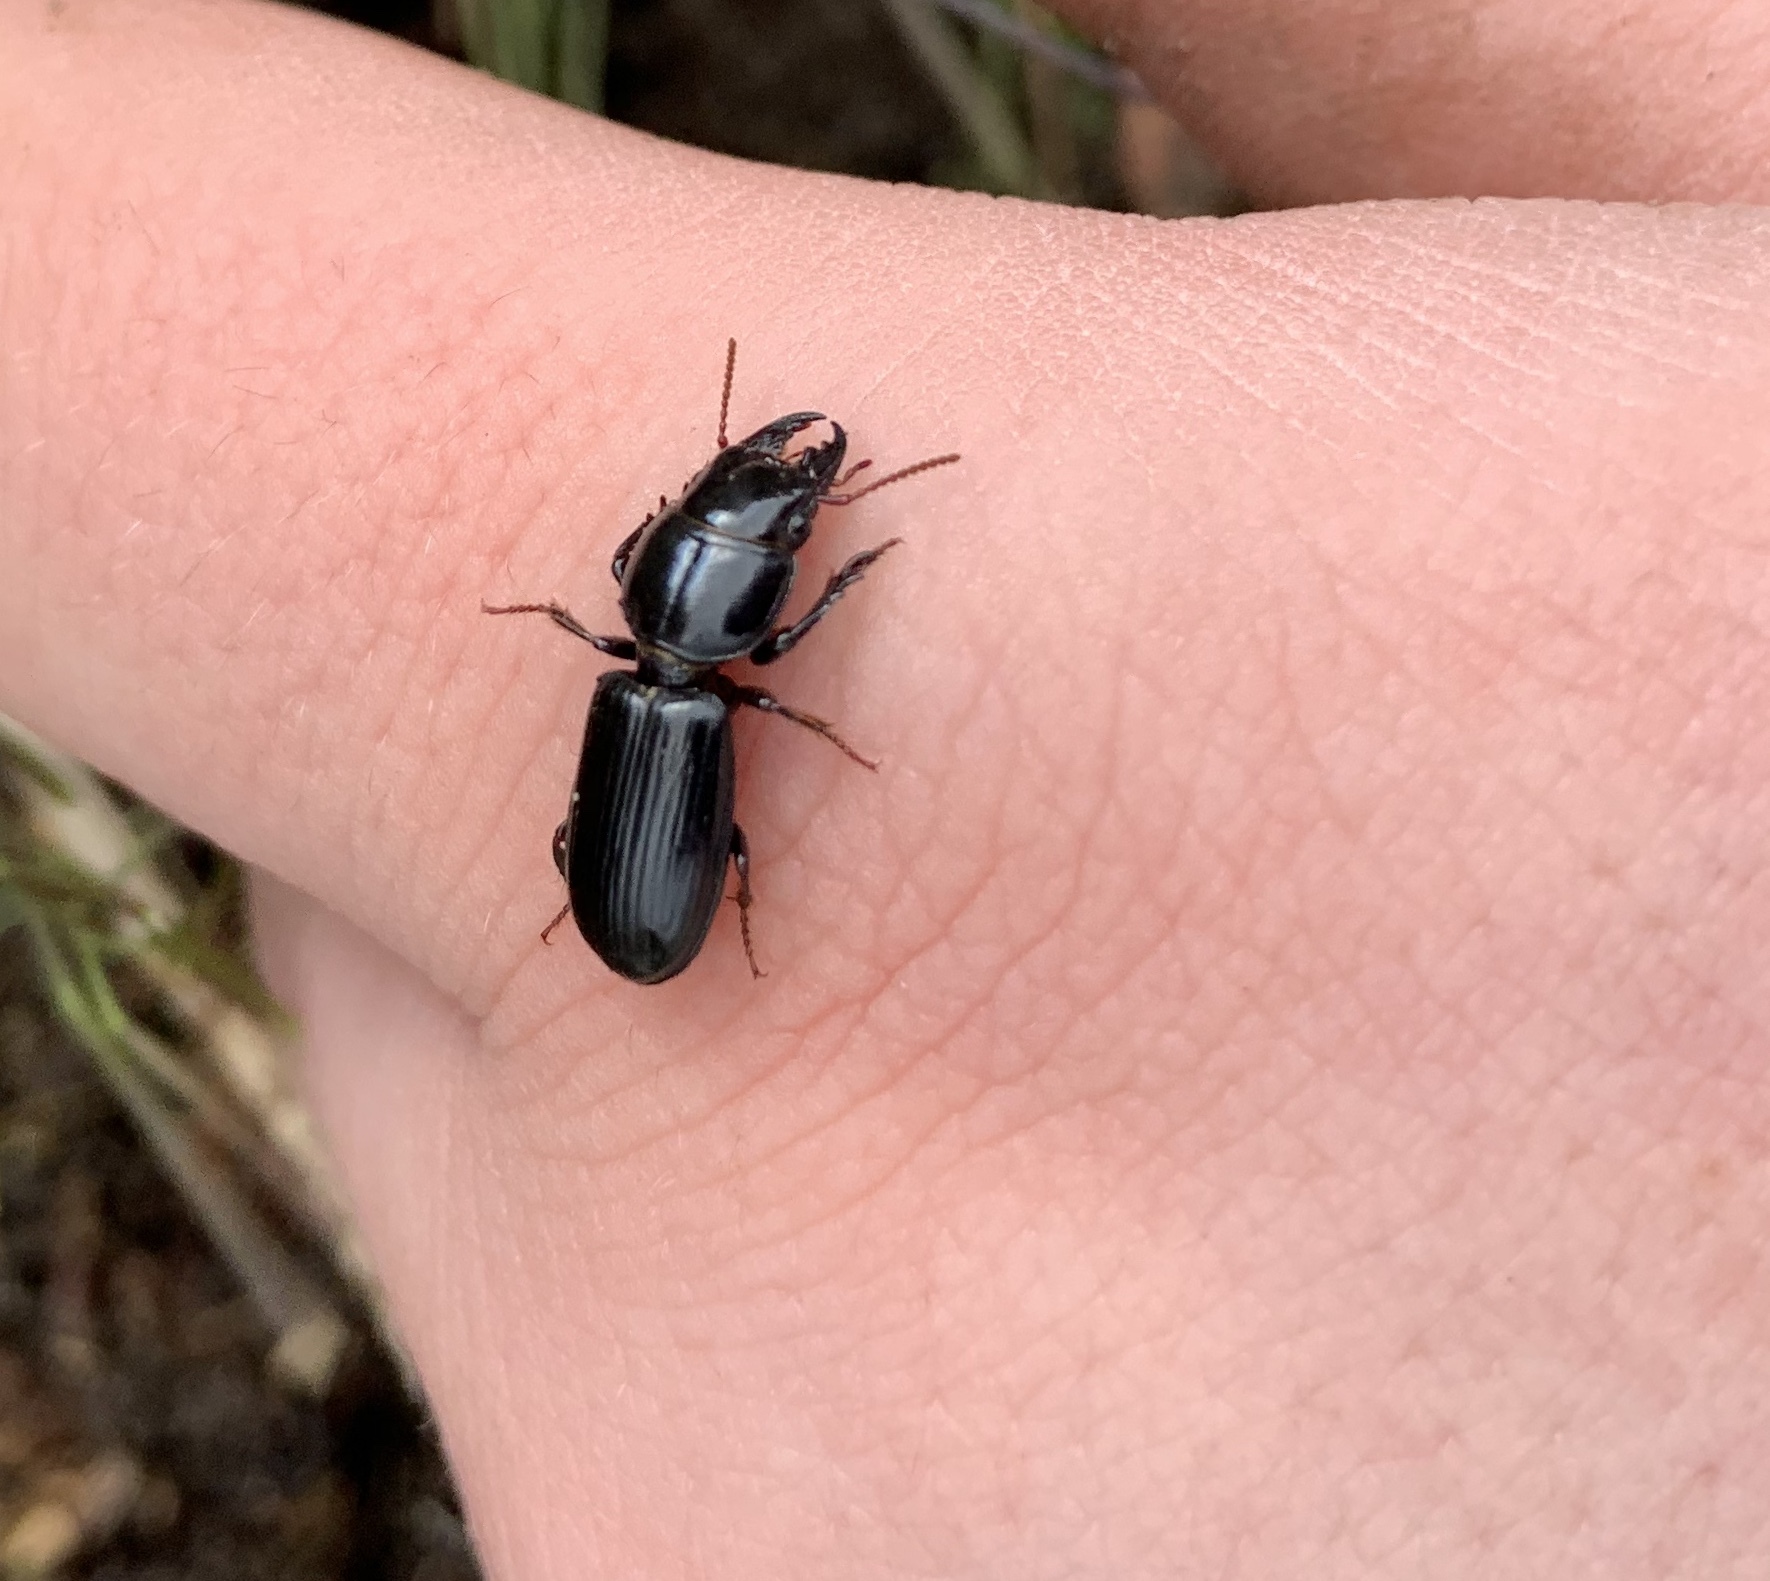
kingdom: Animalia
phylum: Arthropoda
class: Insecta
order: Coleoptera
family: Carabidae
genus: Scarites
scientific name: Scarites subterraneus
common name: Big-headed ground beetle
